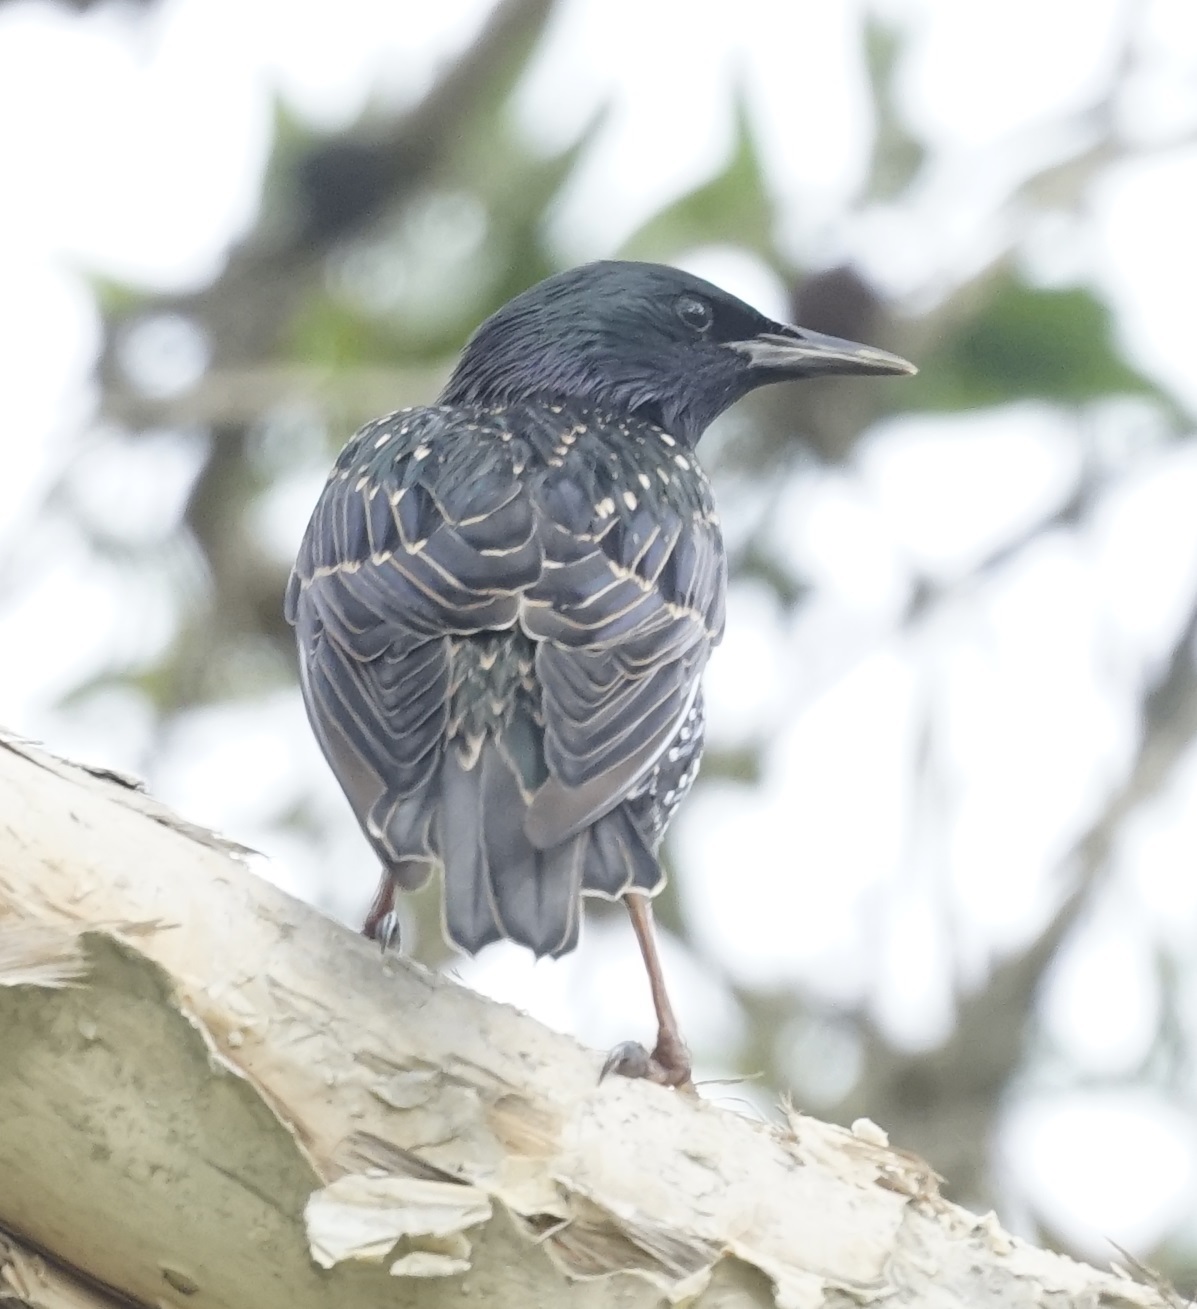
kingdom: Animalia
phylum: Chordata
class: Aves
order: Passeriformes
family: Sturnidae
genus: Sturnus
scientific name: Sturnus vulgaris
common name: Common starling
